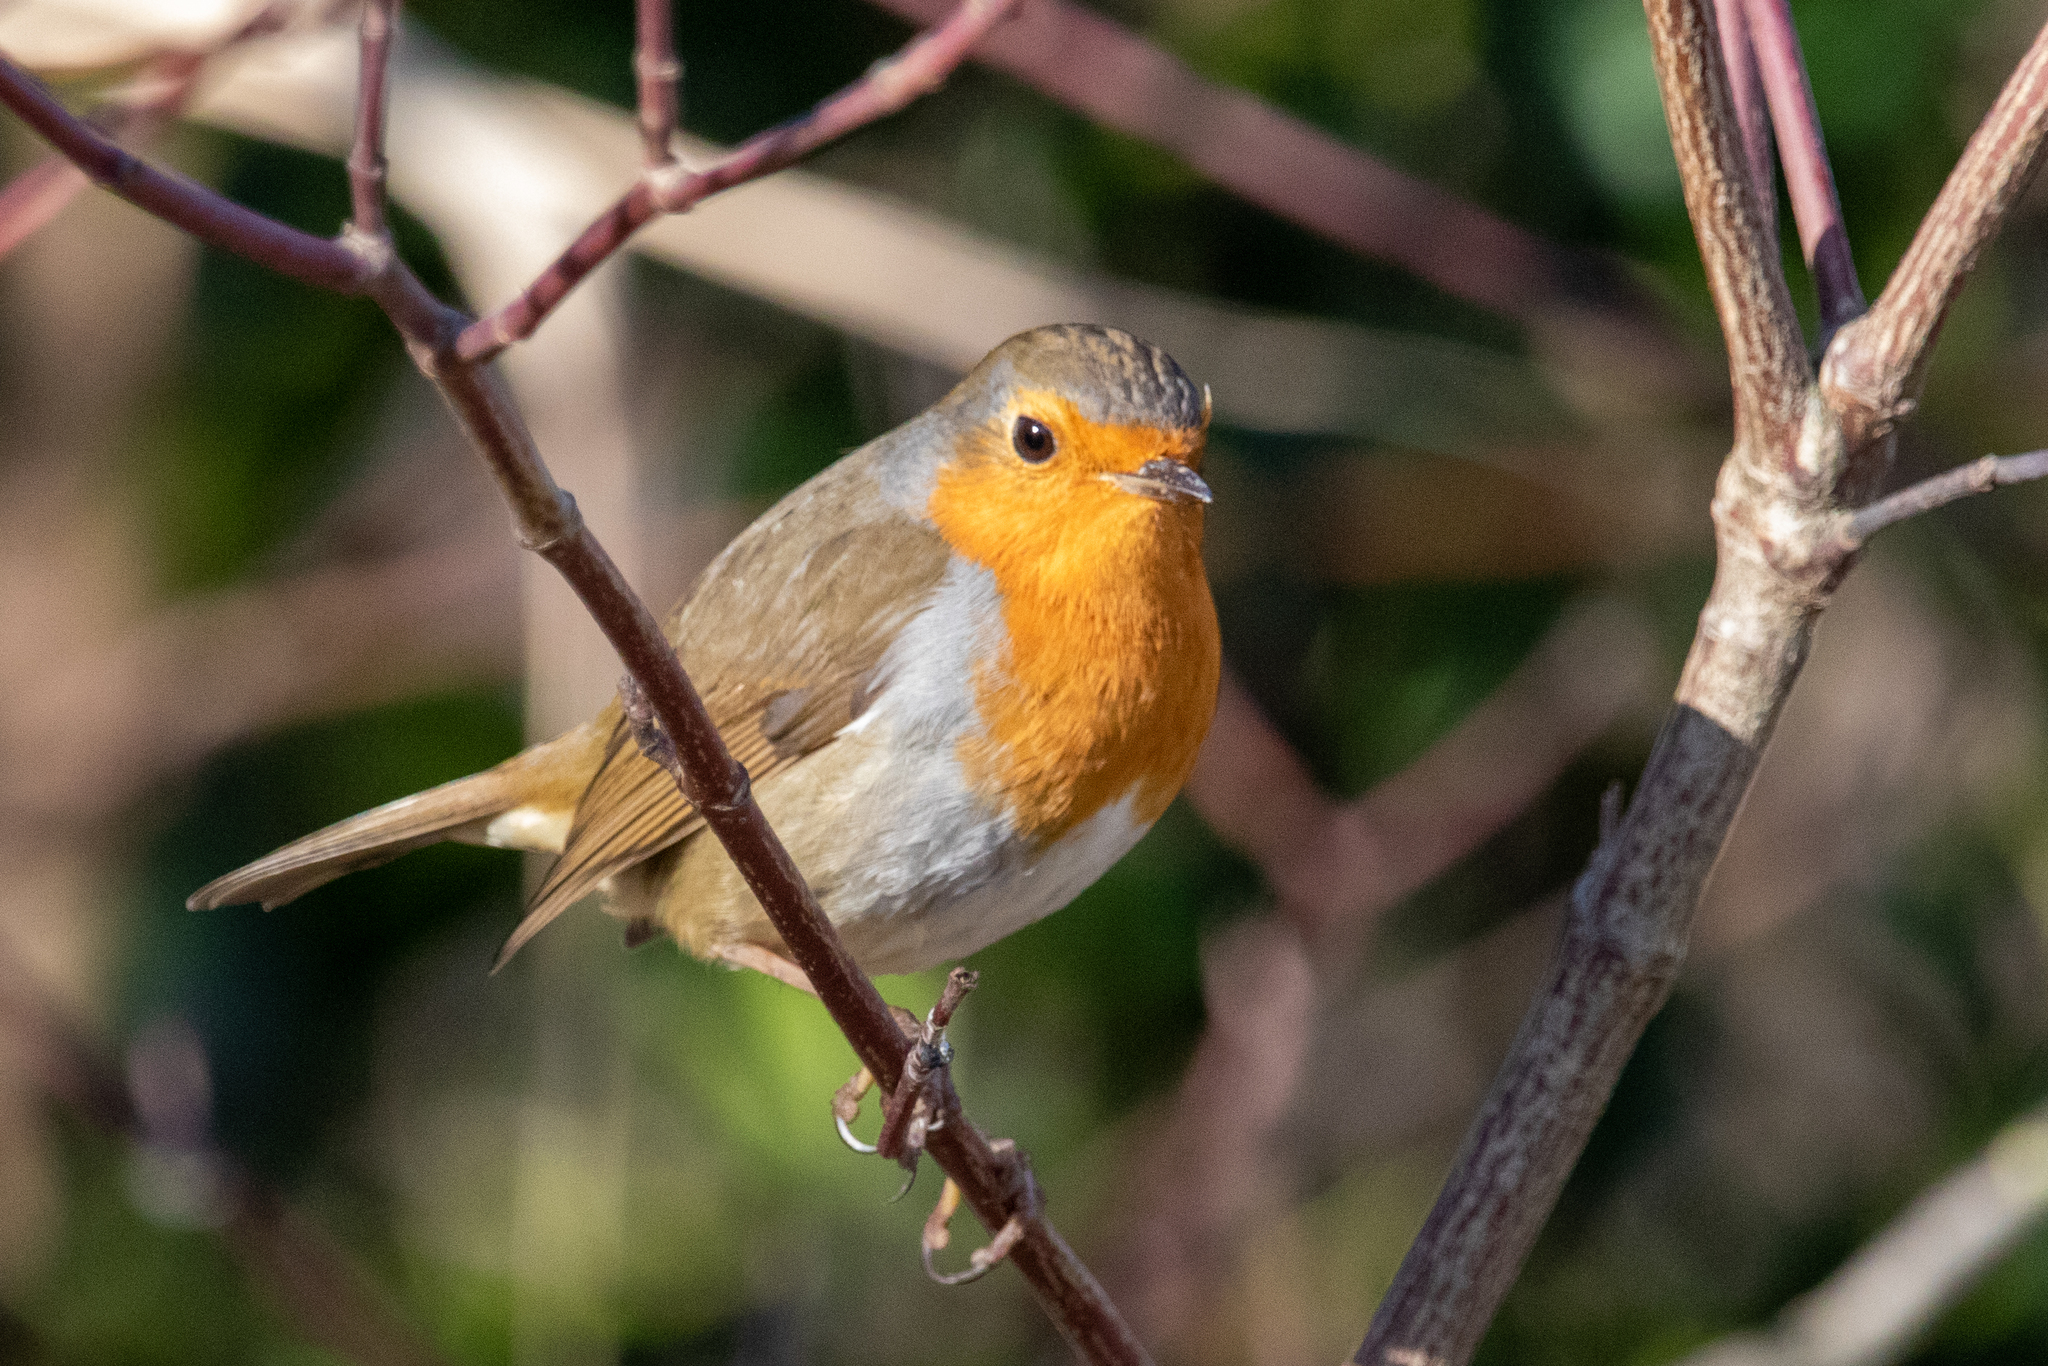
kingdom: Animalia
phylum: Chordata
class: Aves
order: Passeriformes
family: Muscicapidae
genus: Erithacus
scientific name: Erithacus rubecula
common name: European robin
